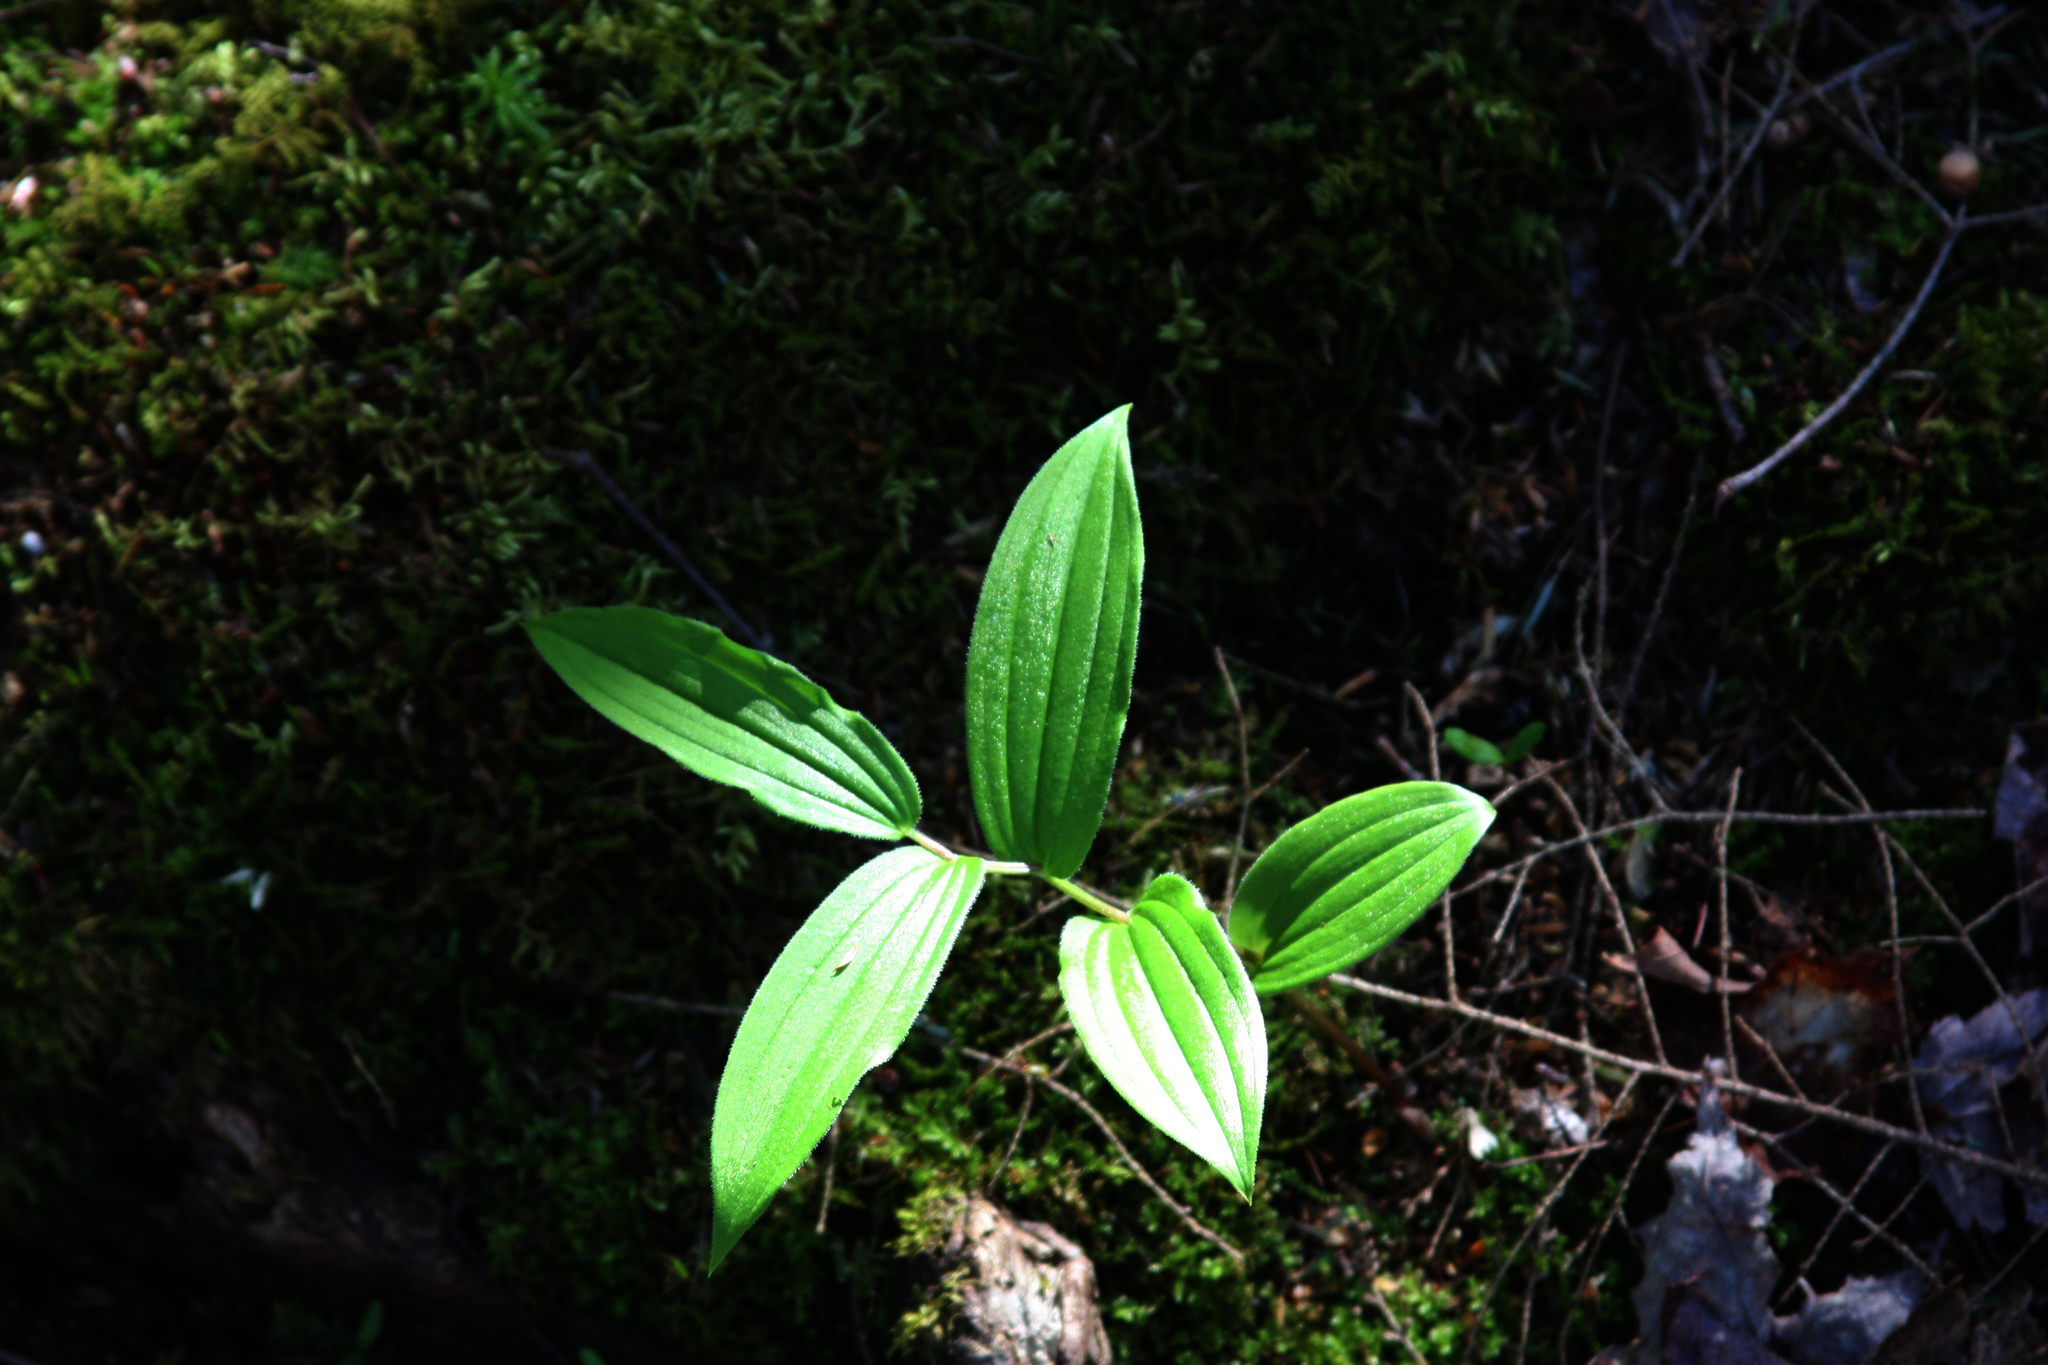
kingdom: Plantae
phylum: Tracheophyta
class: Liliopsida
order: Liliales
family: Liliaceae
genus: Streptopus
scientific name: Streptopus lanceolatus
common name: Rose mandarin
